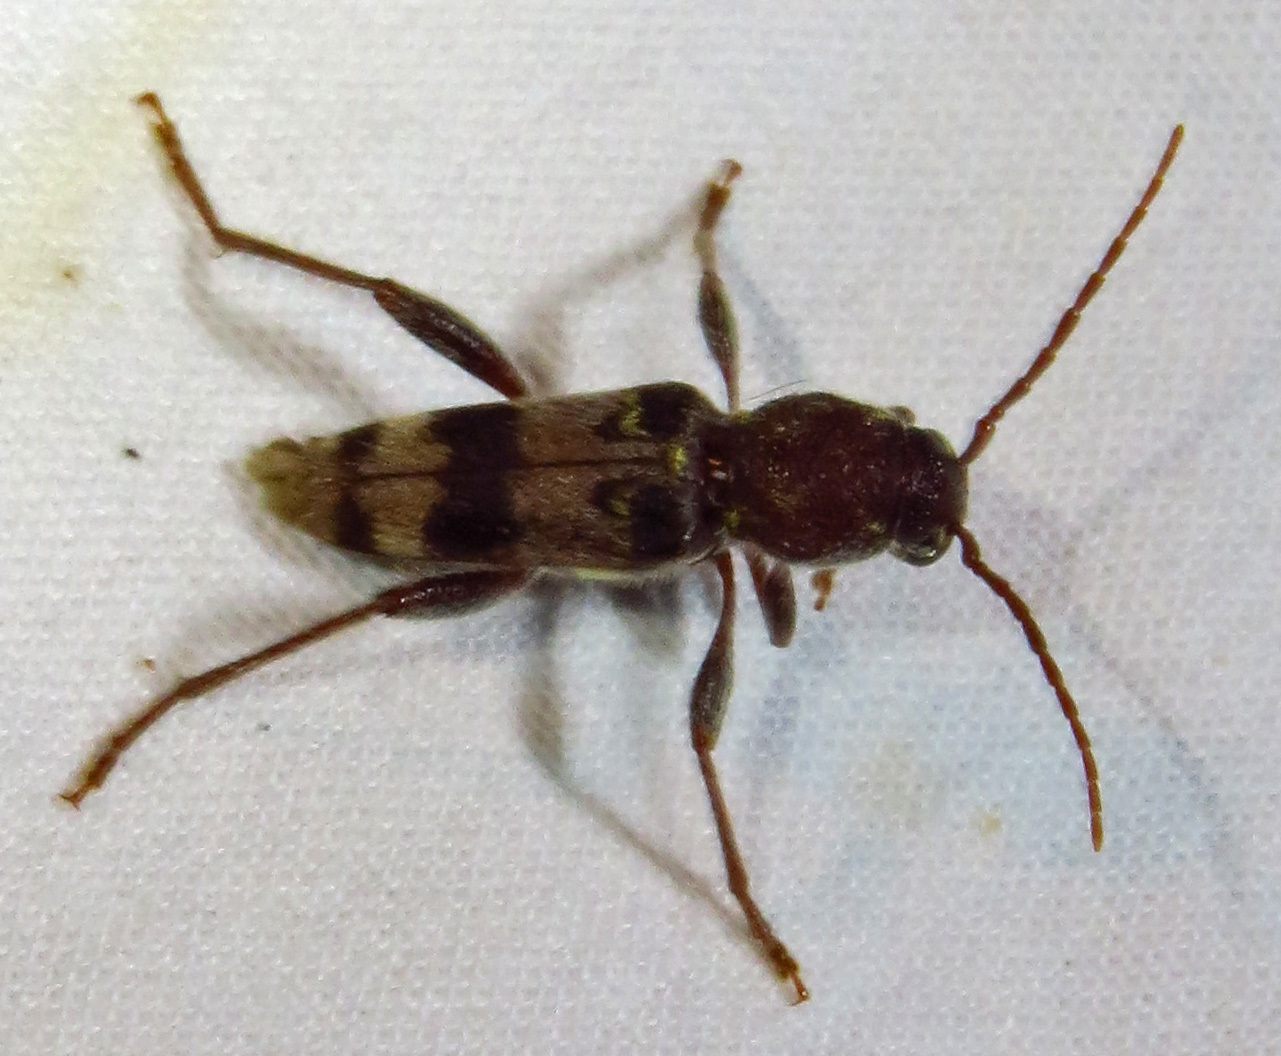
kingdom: Animalia
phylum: Arthropoda
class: Insecta
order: Coleoptera
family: Cerambycidae
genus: Xylotrechus
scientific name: Xylotrechus colonus
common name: Long-horned beetle
